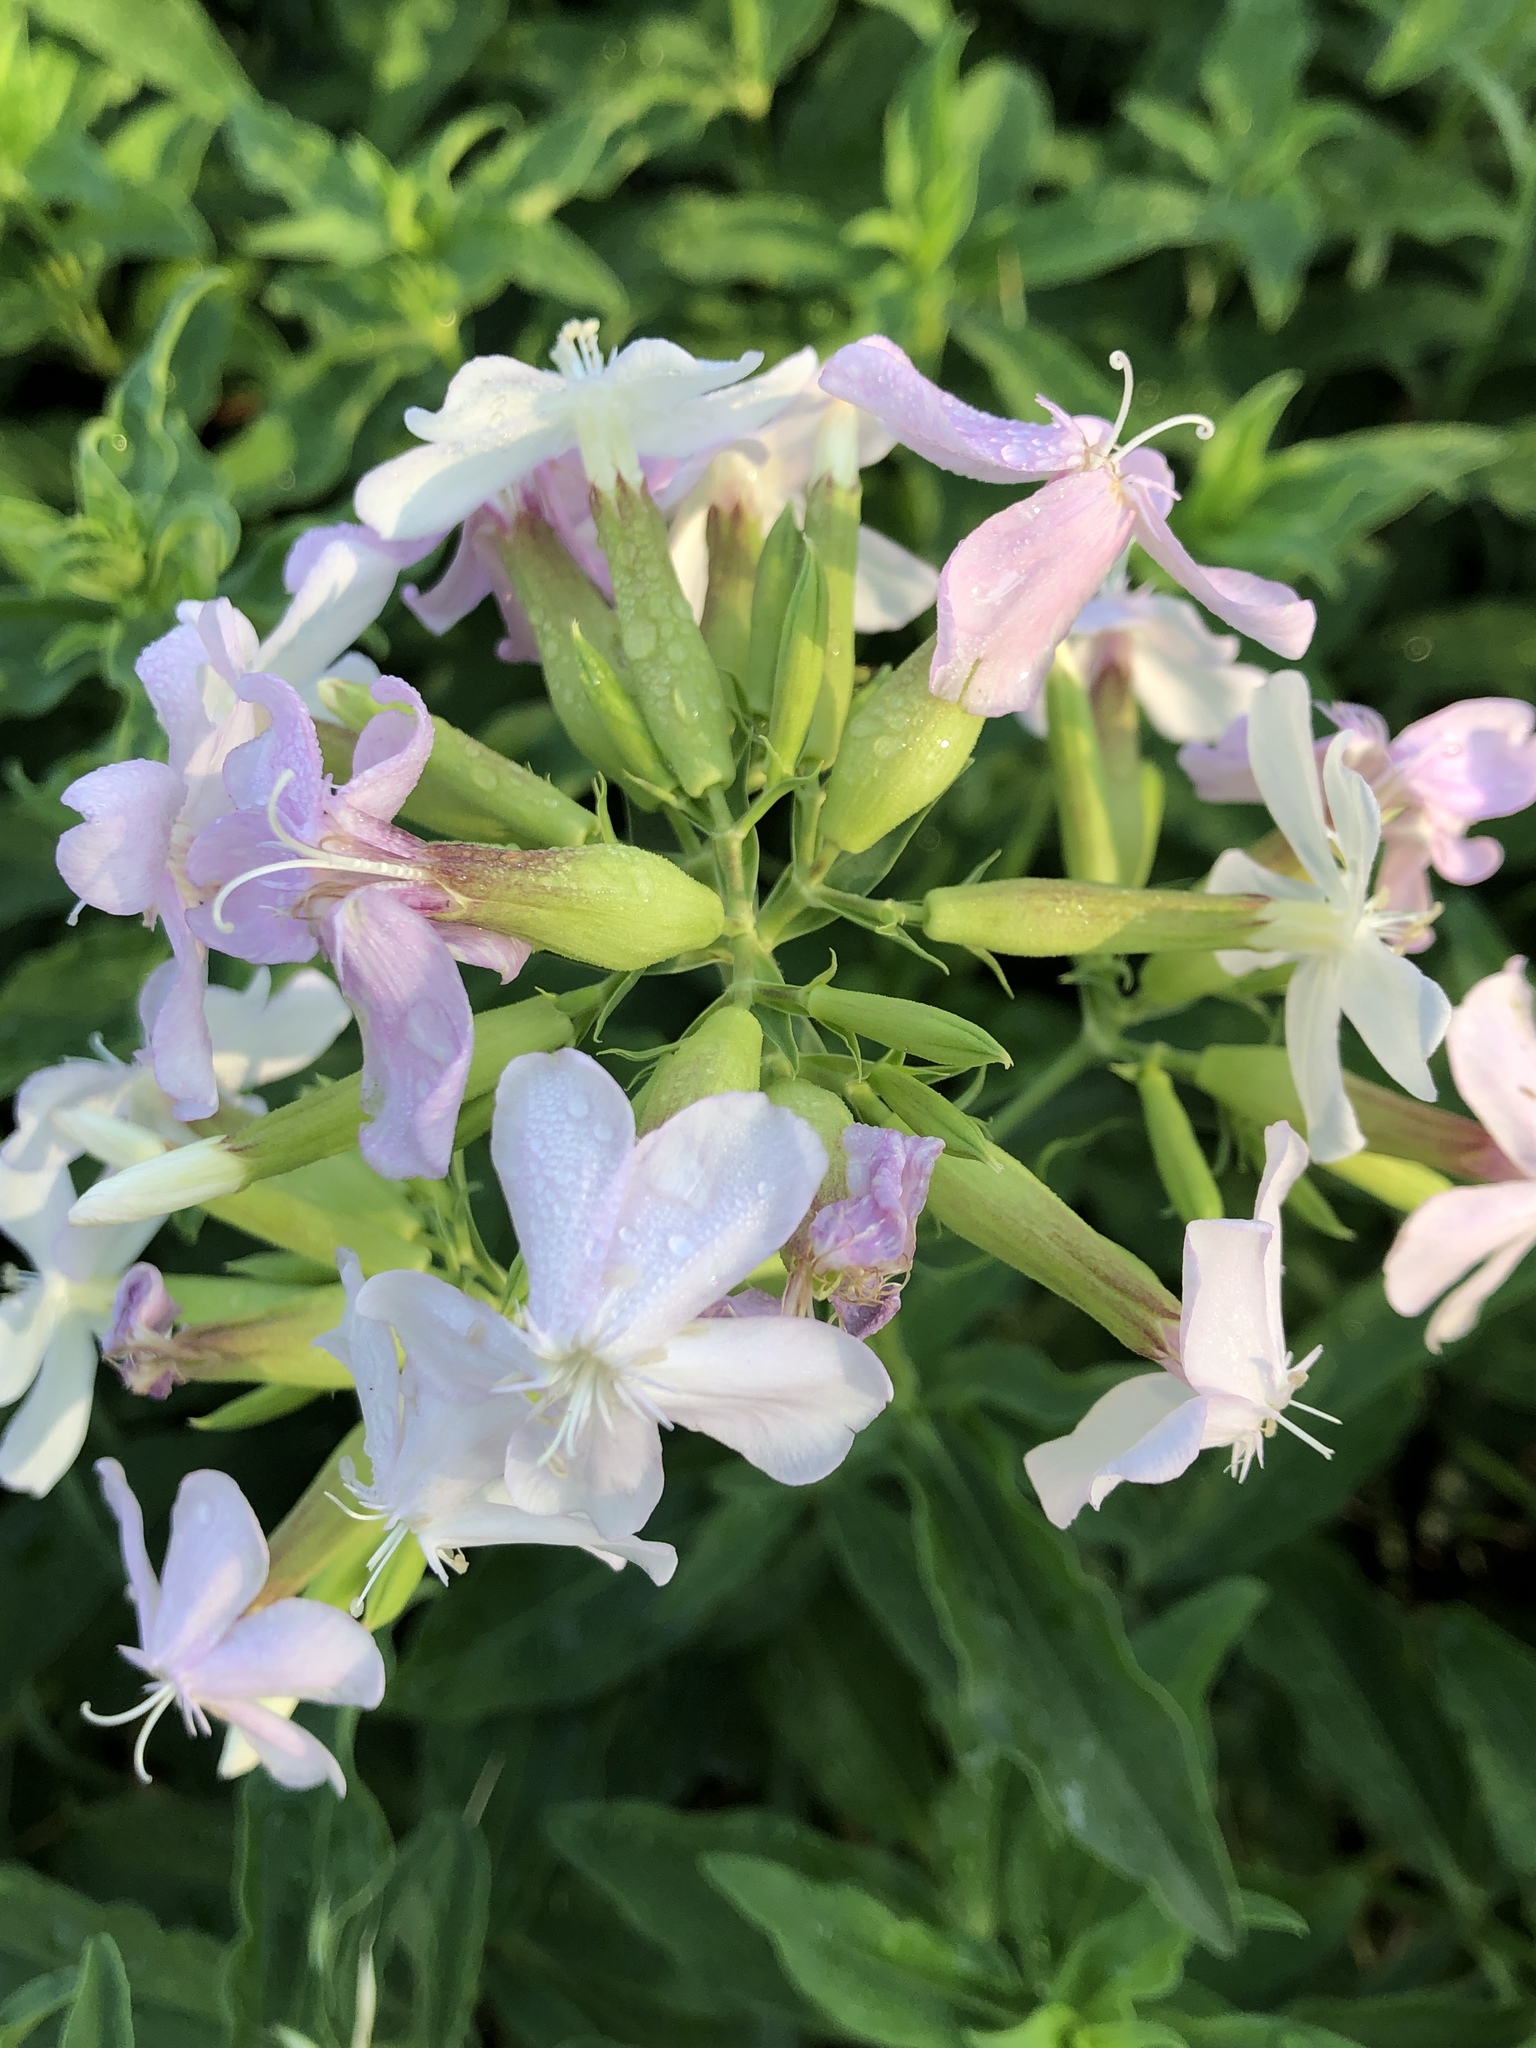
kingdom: Plantae
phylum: Tracheophyta
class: Magnoliopsida
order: Caryophyllales
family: Caryophyllaceae
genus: Saponaria
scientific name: Saponaria officinalis
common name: Soapwort
